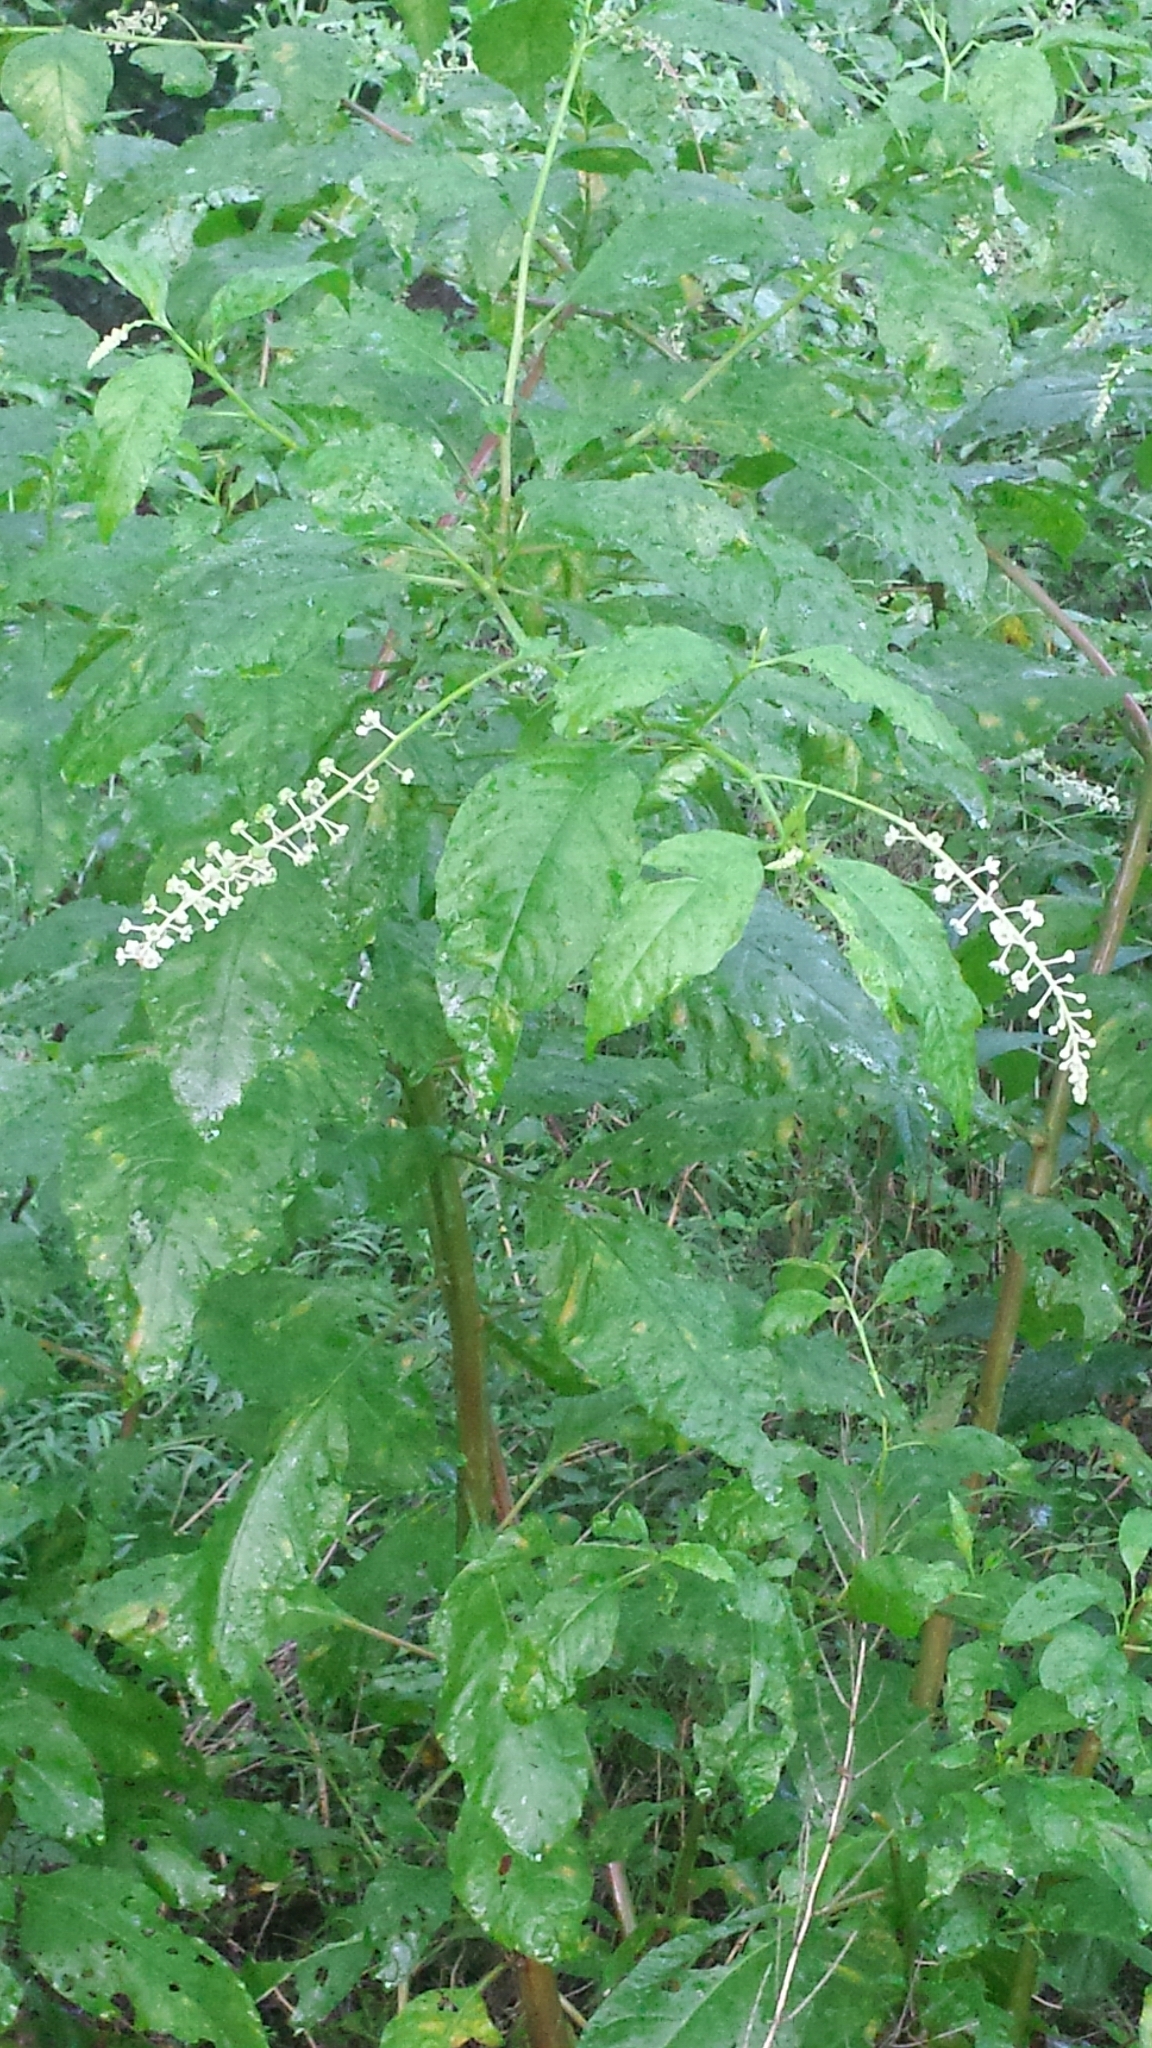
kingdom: Plantae
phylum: Tracheophyta
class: Magnoliopsida
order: Caryophyllales
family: Phytolaccaceae
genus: Phytolacca
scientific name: Phytolacca americana
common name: American pokeweed
